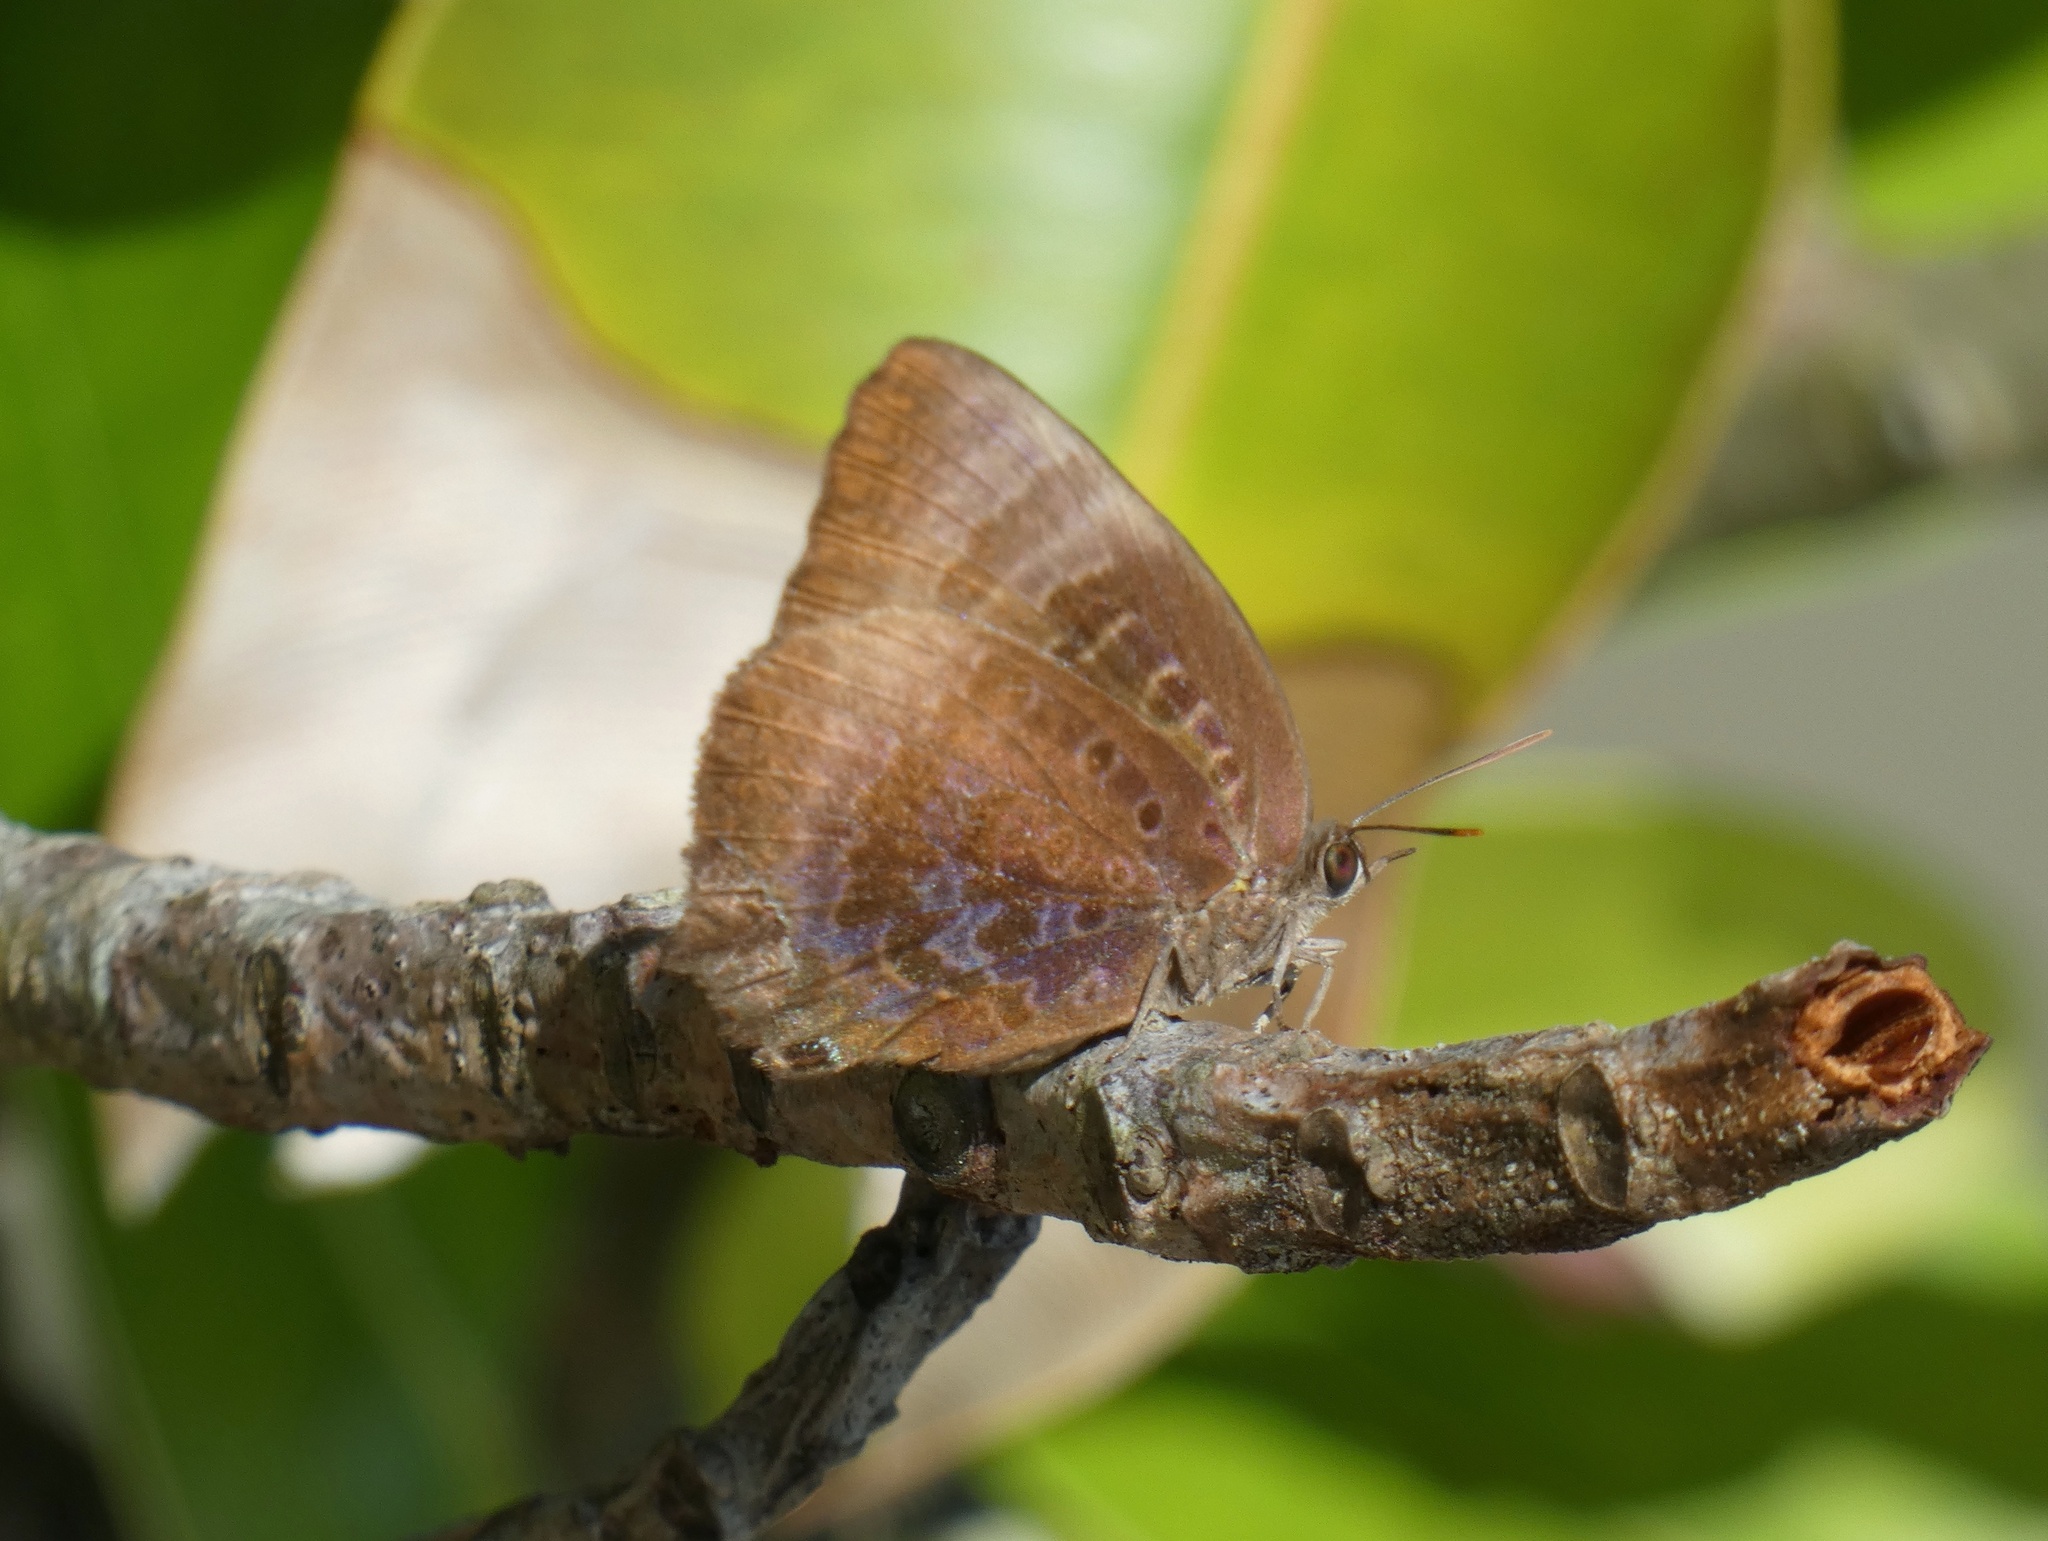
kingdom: Animalia
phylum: Arthropoda
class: Insecta
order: Lepidoptera
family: Lycaenidae
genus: Arhopala
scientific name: Arhopala micale
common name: Shining oak-blue
